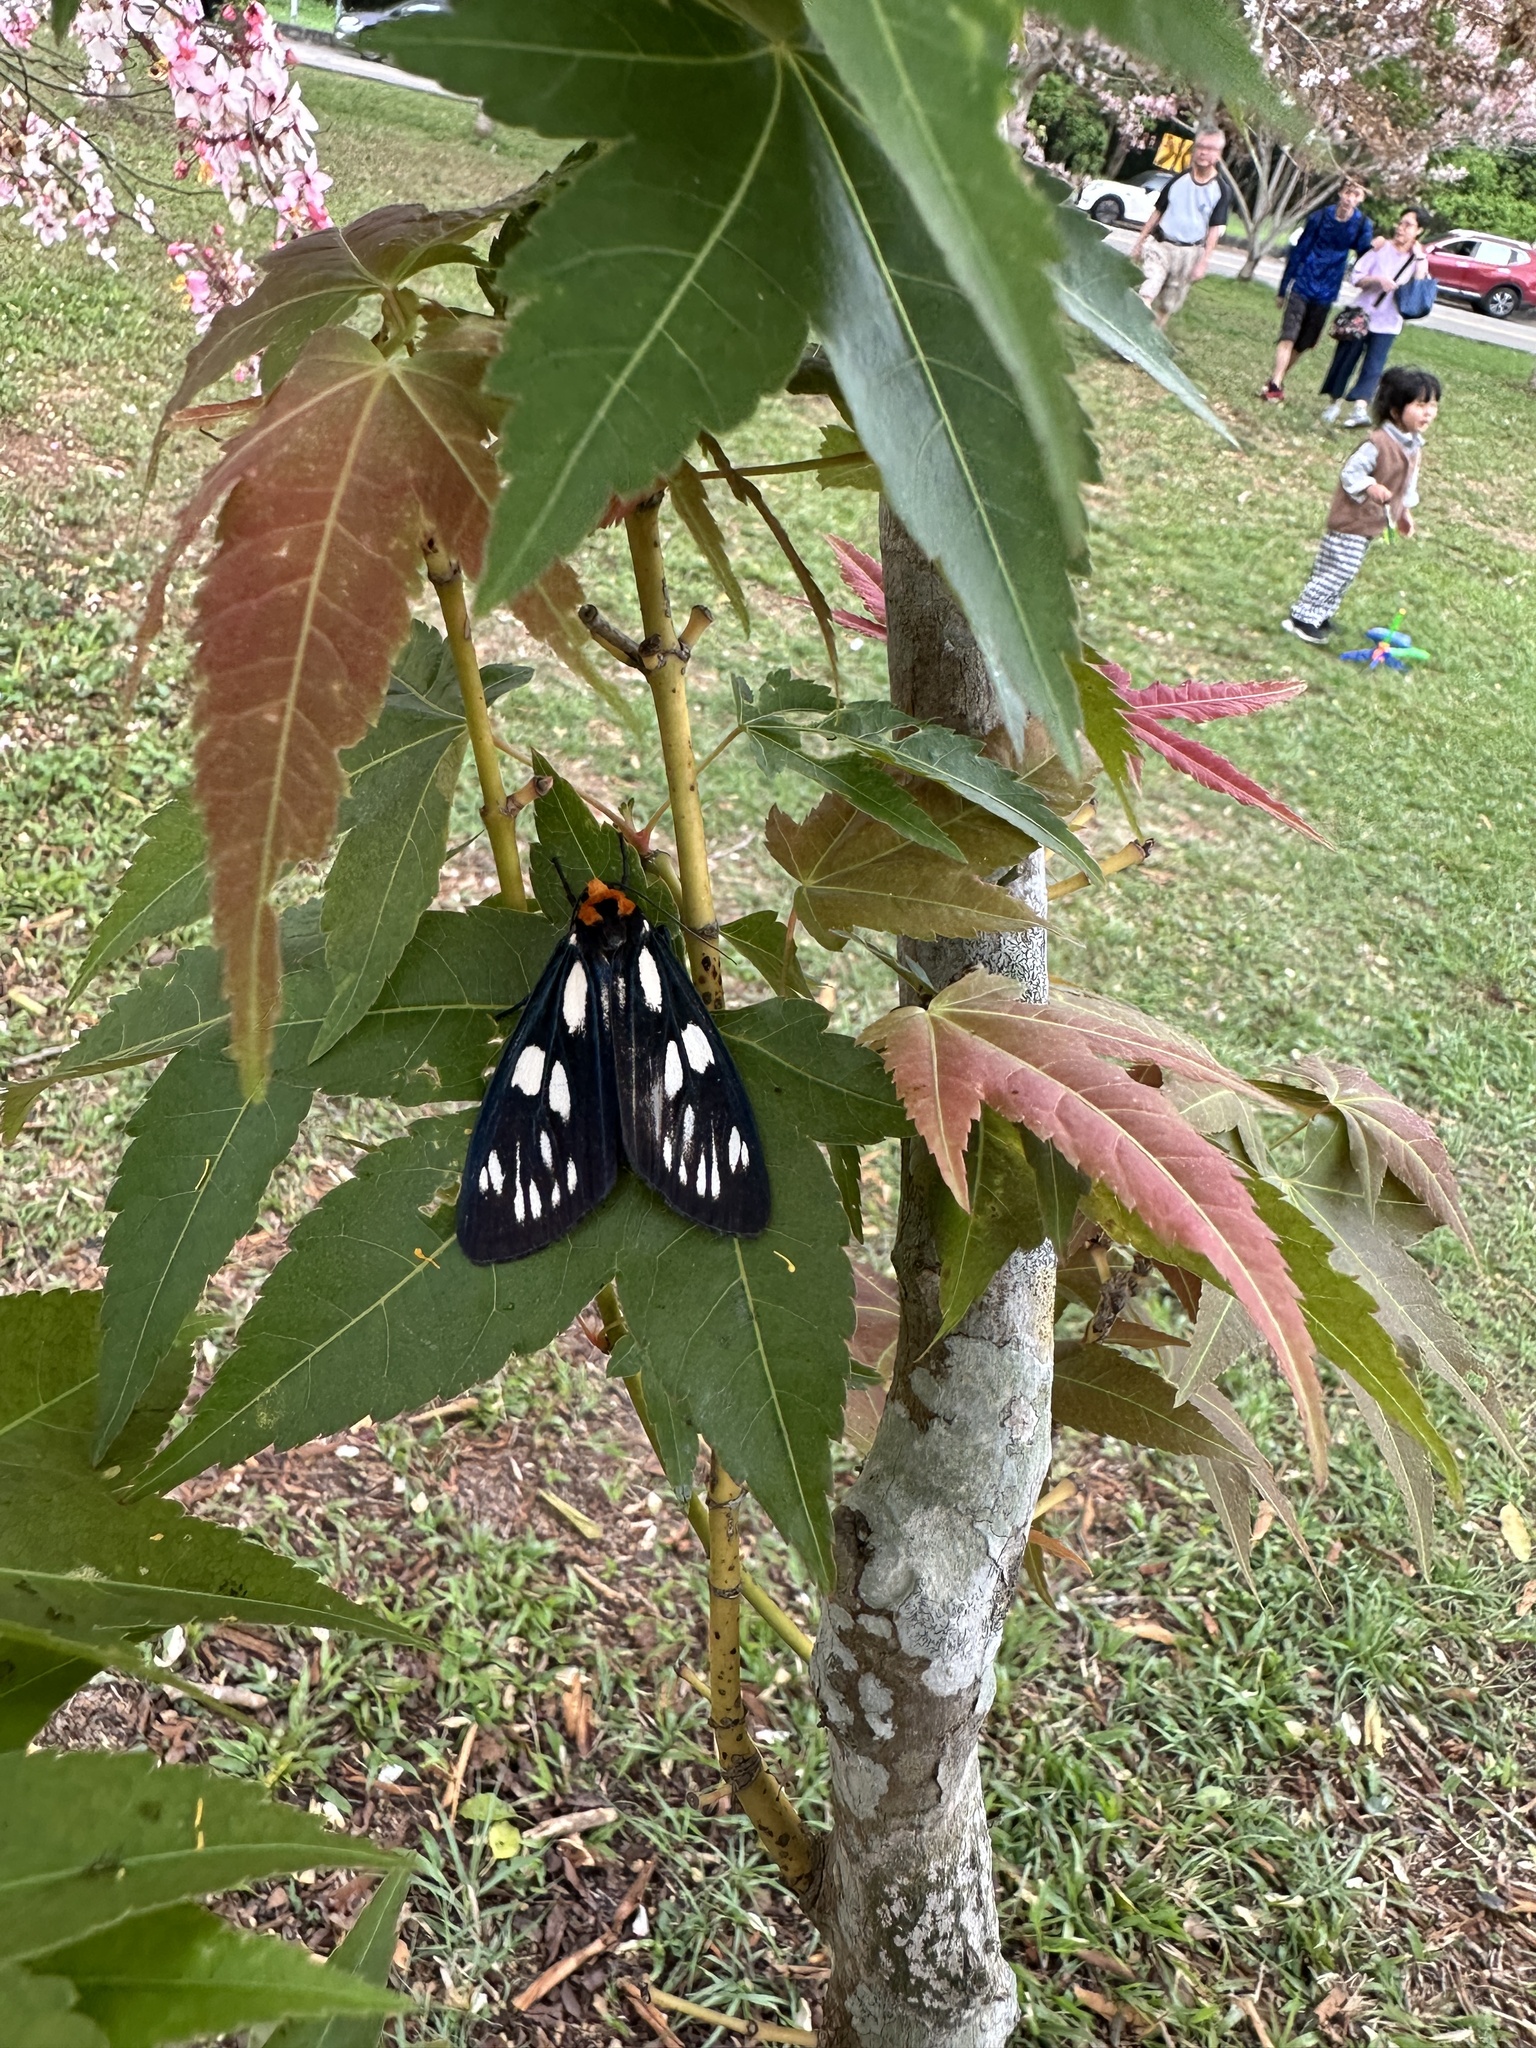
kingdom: Animalia
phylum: Arthropoda
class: Insecta
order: Lepidoptera
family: Zygaenidae
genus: Eterusia
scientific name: Eterusia aedea
